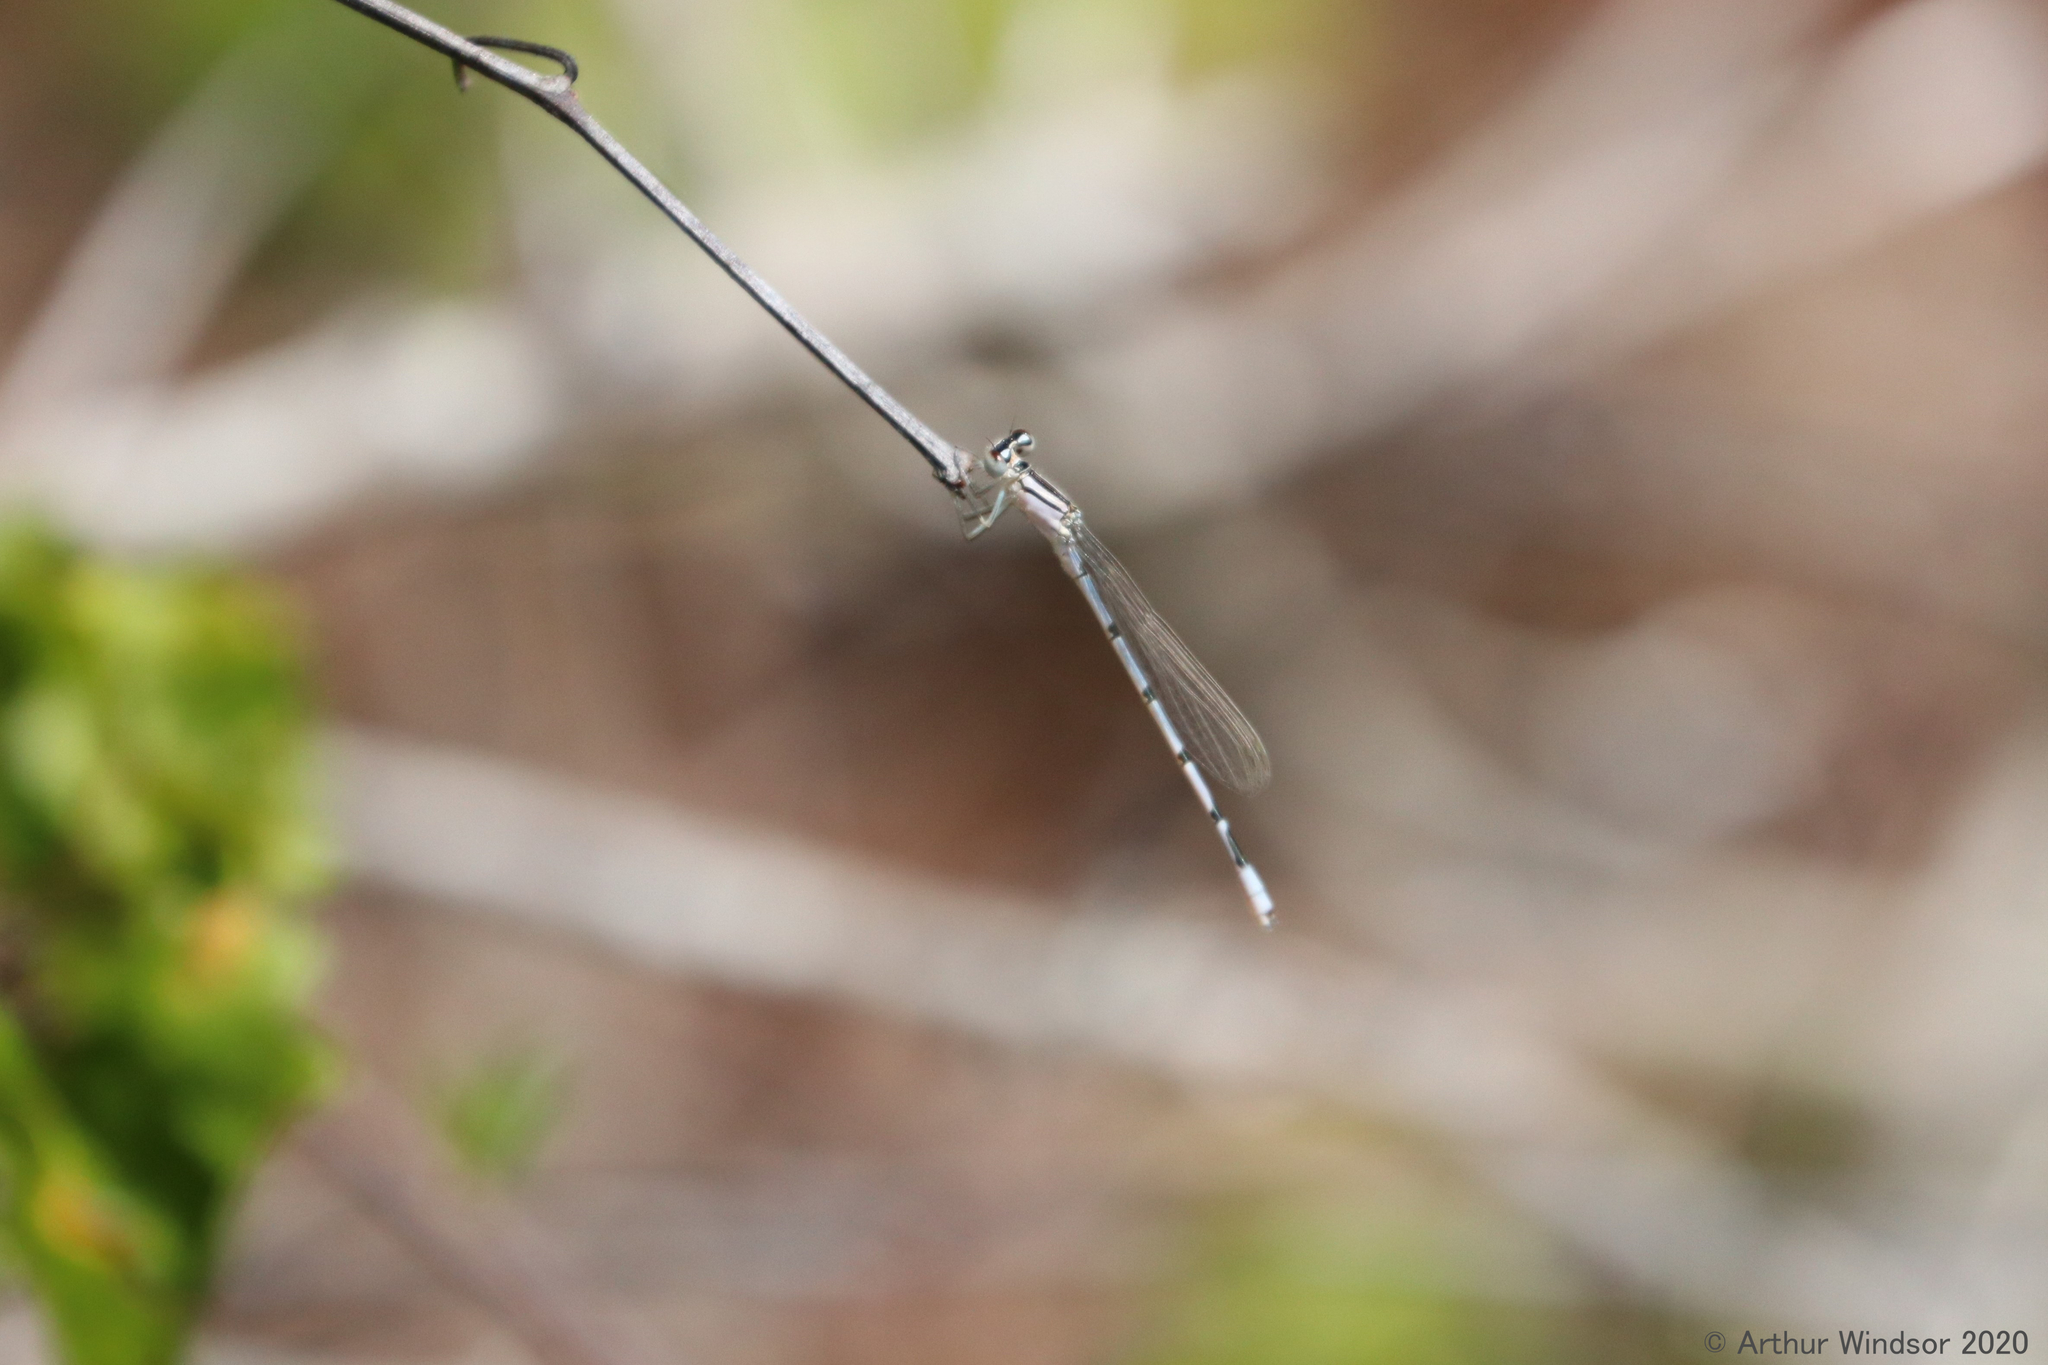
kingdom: Animalia
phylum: Arthropoda
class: Insecta
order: Odonata
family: Coenagrionidae
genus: Enallagma
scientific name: Enallagma civile
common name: Damselfly
